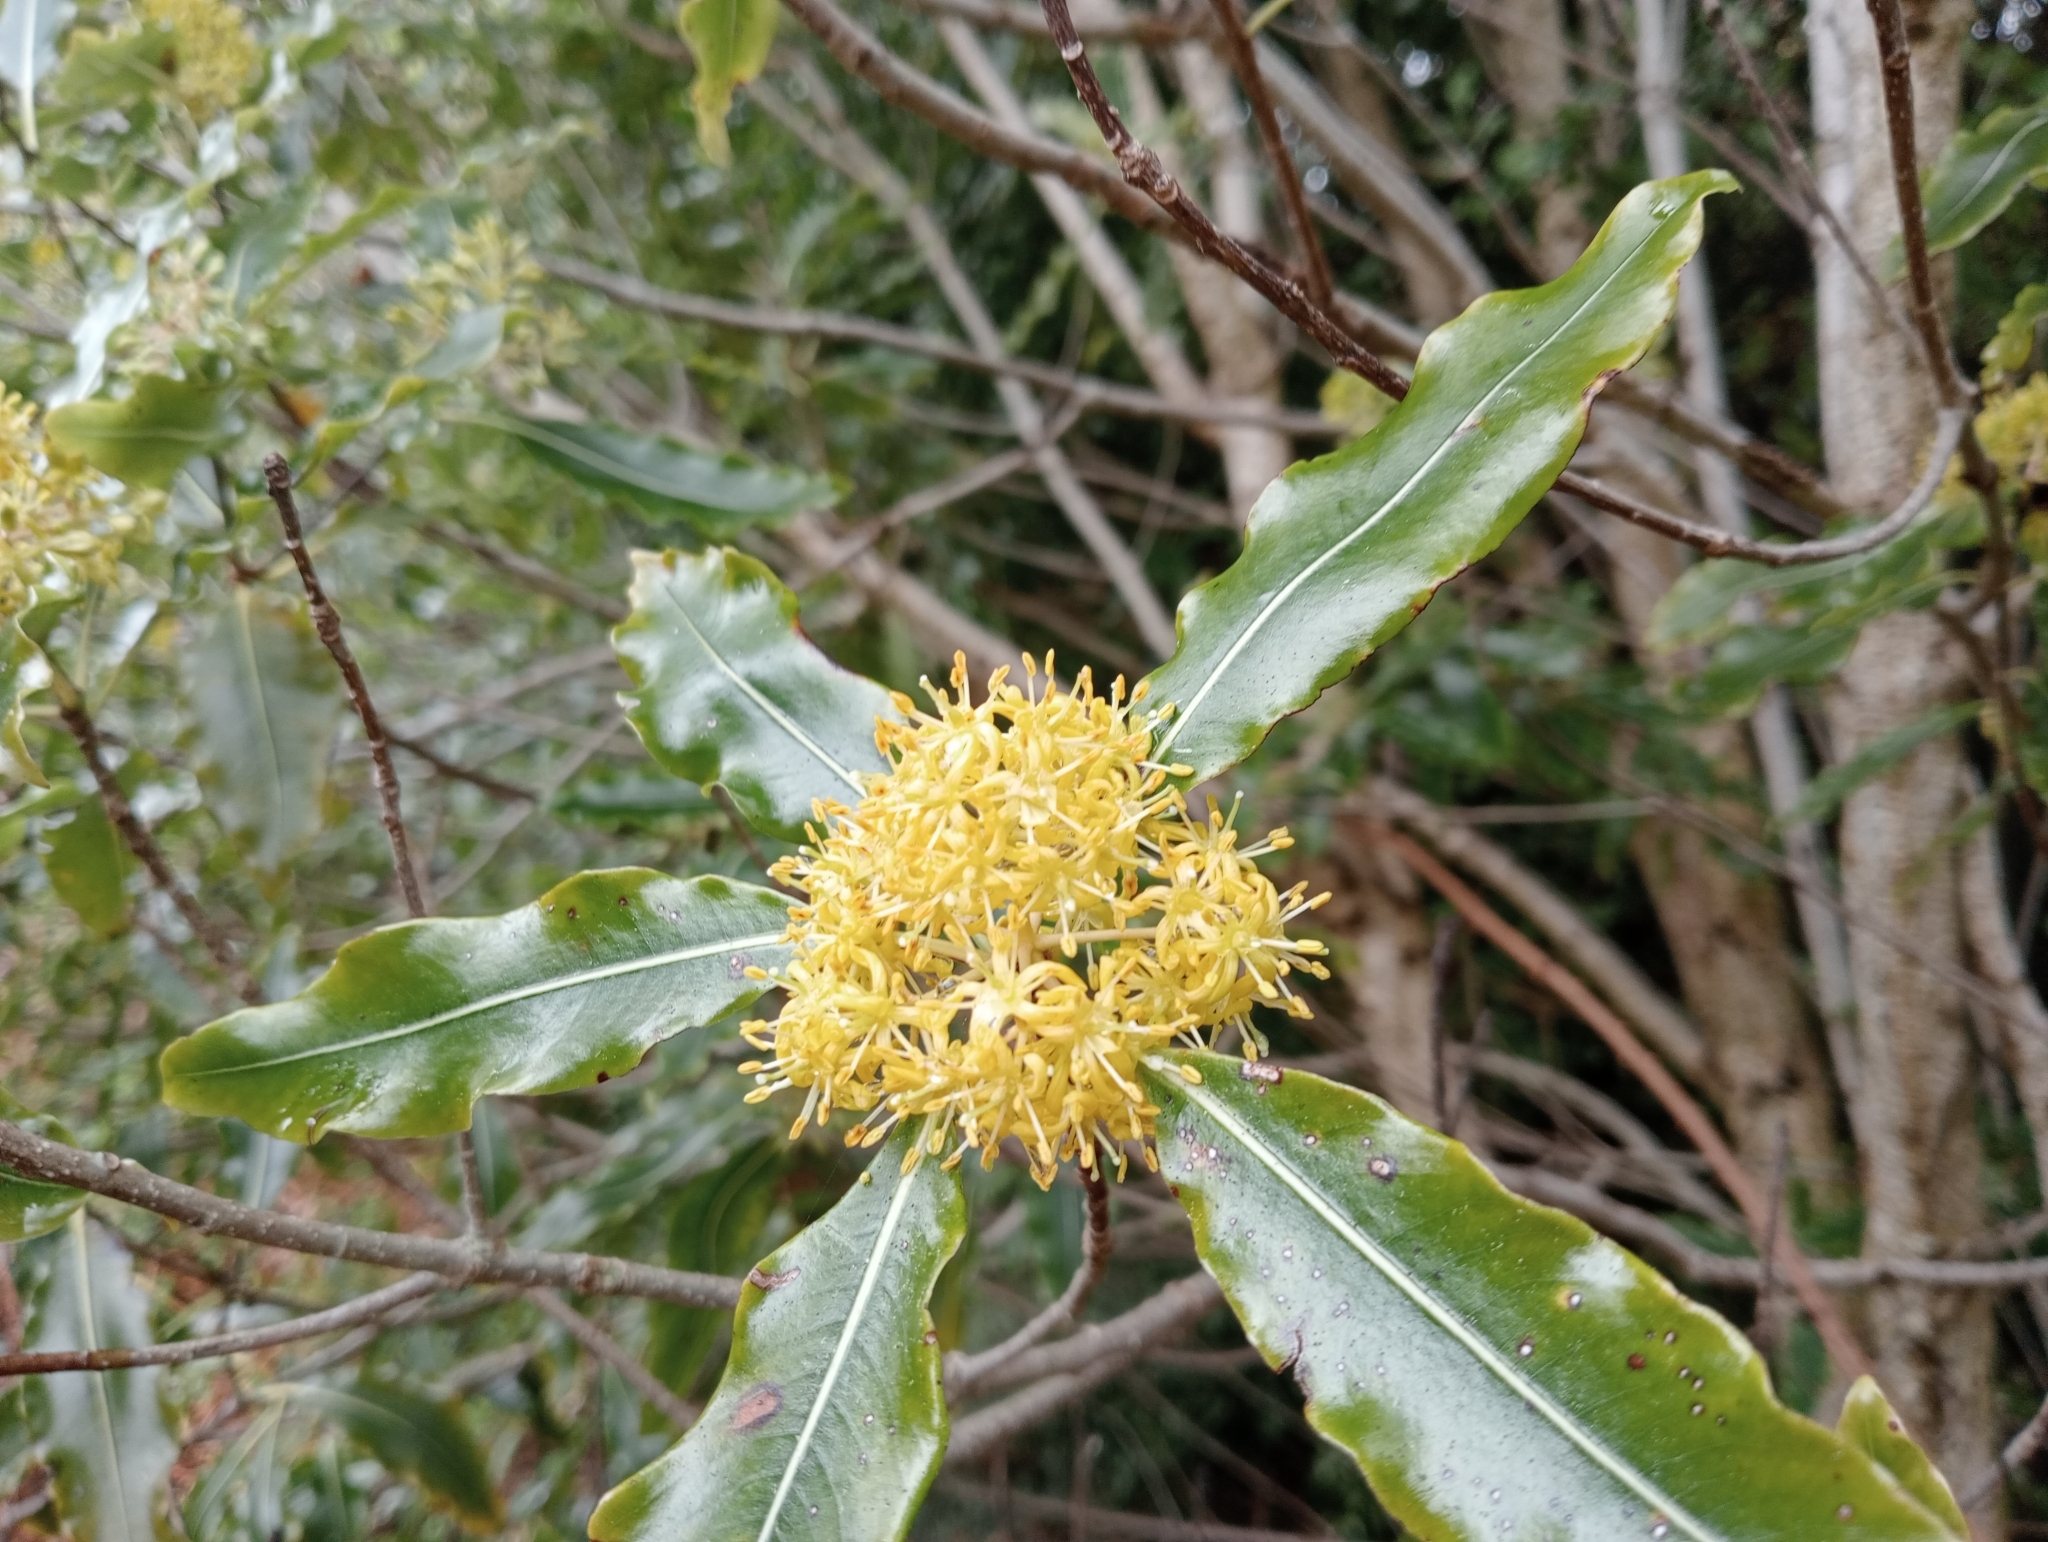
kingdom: Plantae
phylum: Tracheophyta
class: Magnoliopsida
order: Apiales
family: Pittosporaceae
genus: Pittosporum
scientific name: Pittosporum eugenioides
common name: Lemonwood
